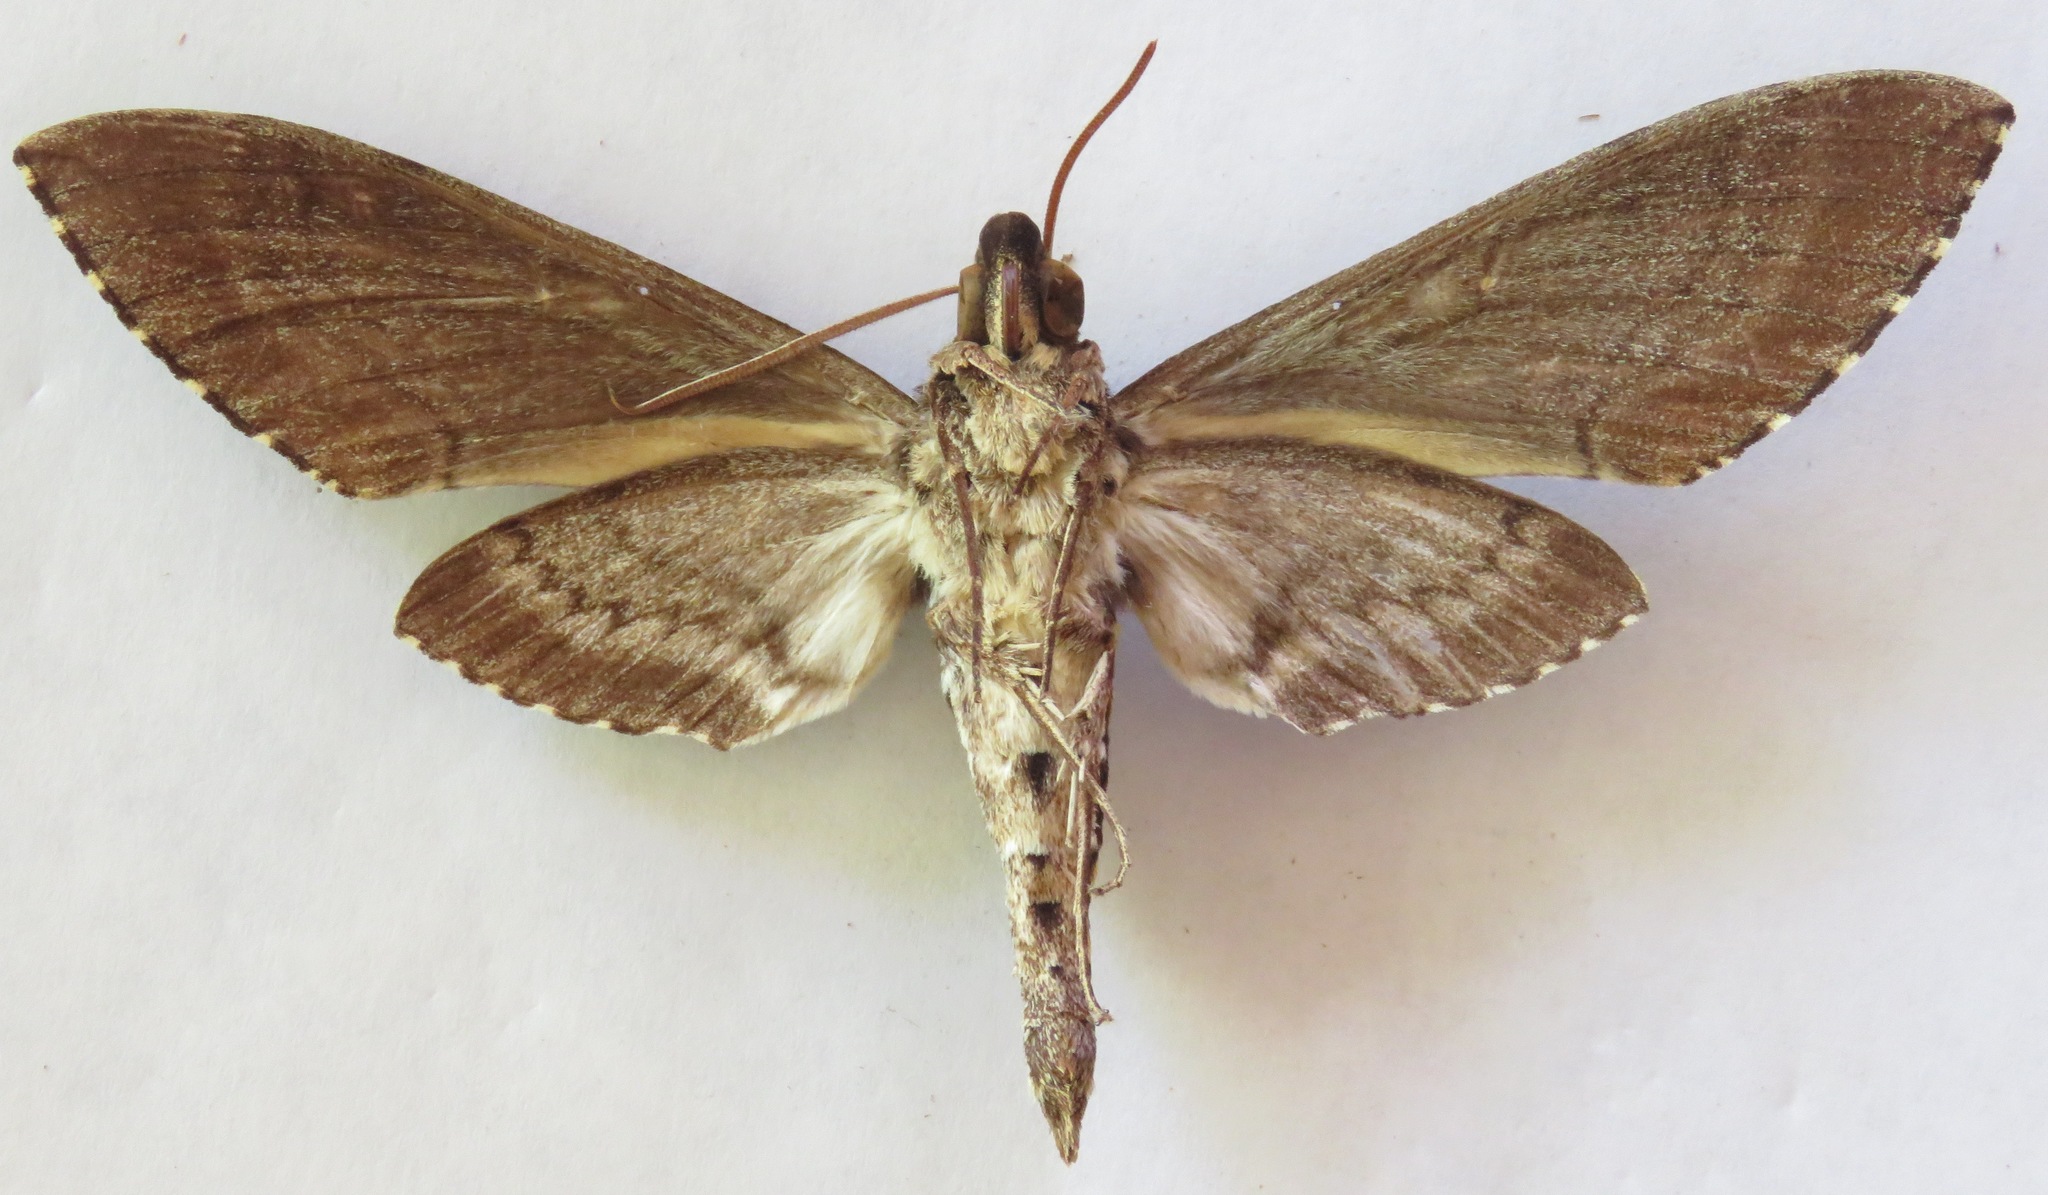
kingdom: Animalia
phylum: Arthropoda
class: Insecta
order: Lepidoptera
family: Sphingidae
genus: Manduca
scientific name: Manduca scutata
